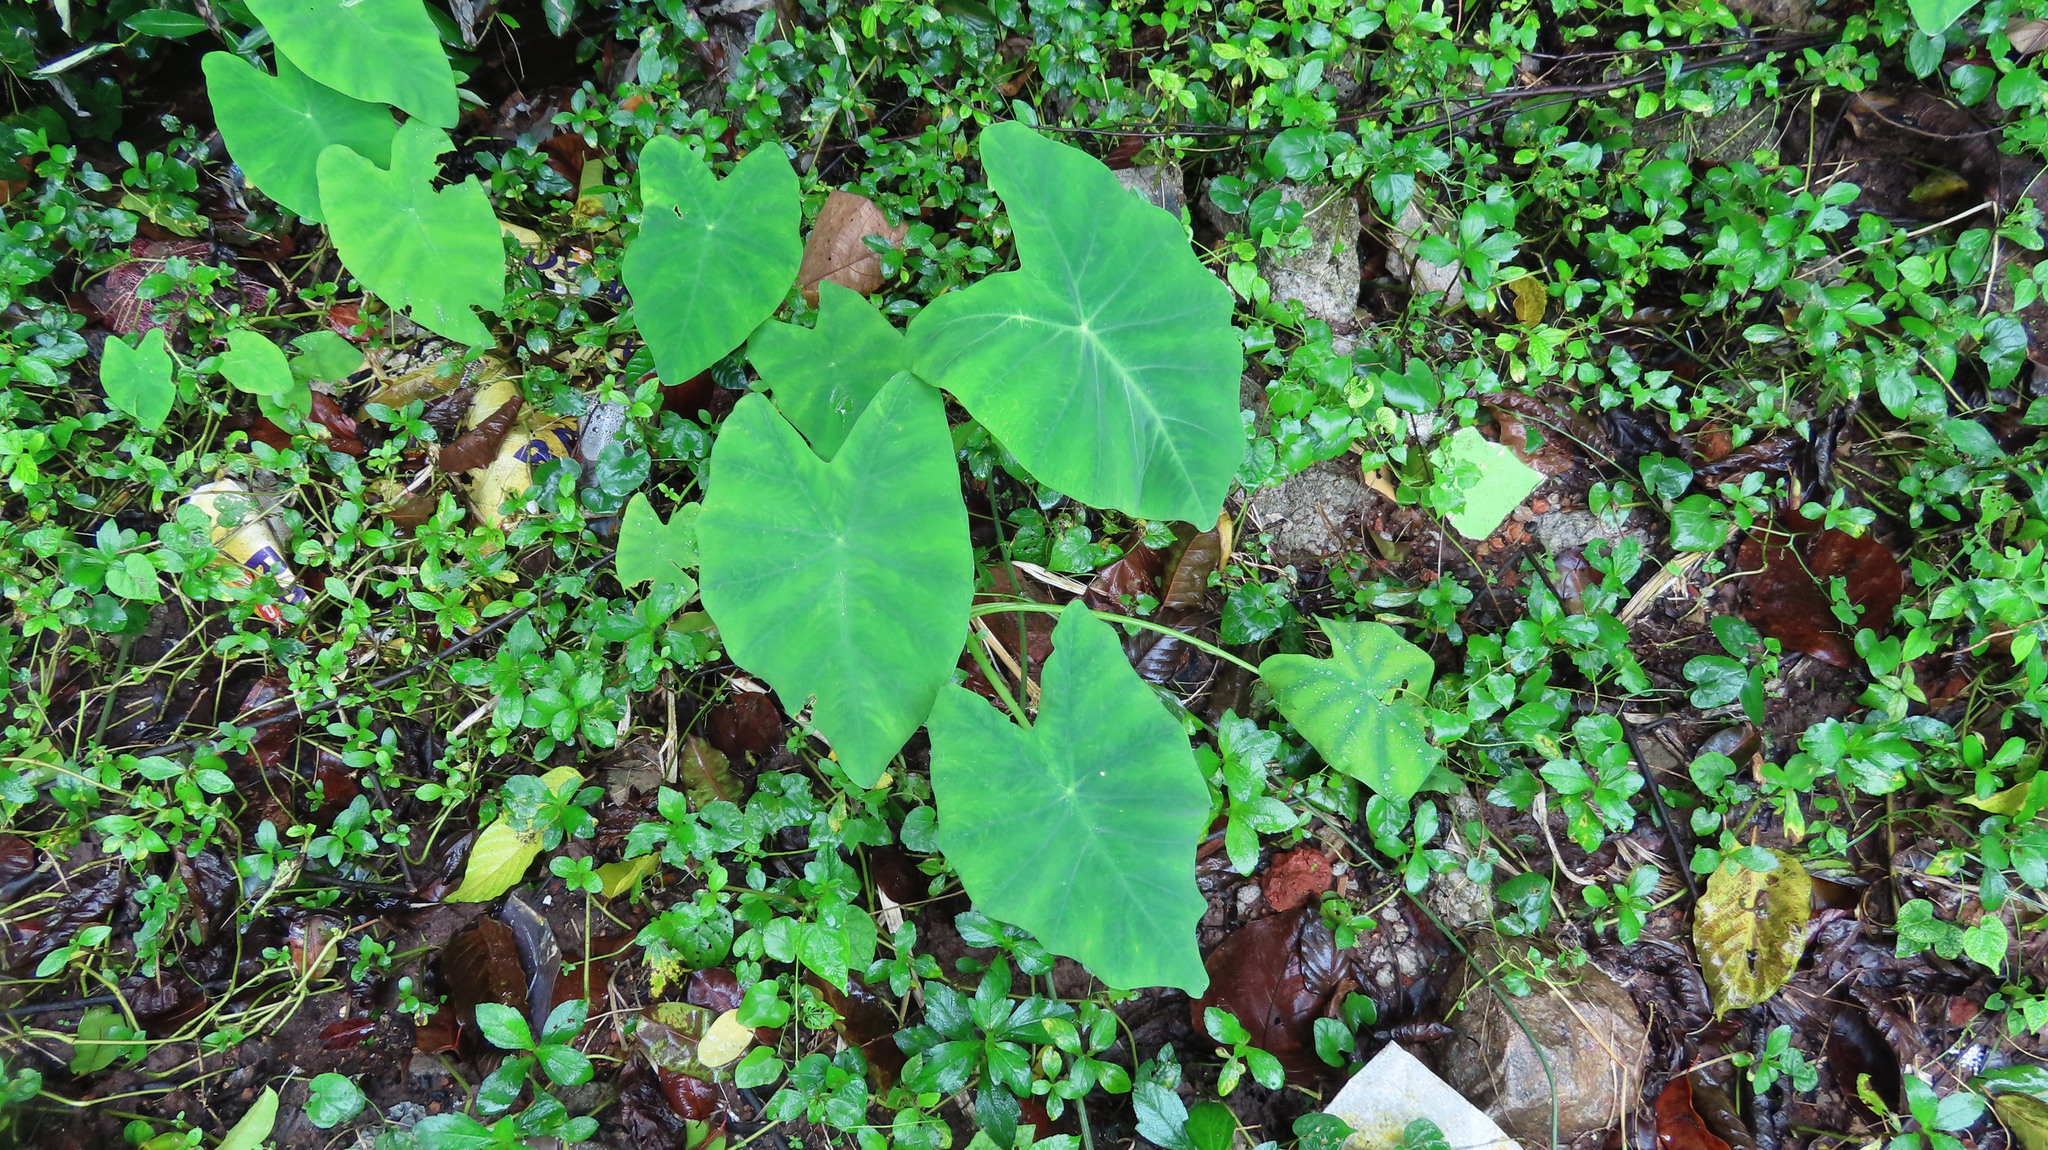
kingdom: Plantae
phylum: Tracheophyta
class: Liliopsida
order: Alismatales
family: Araceae
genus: Colocasia
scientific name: Colocasia esculenta
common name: Taro
